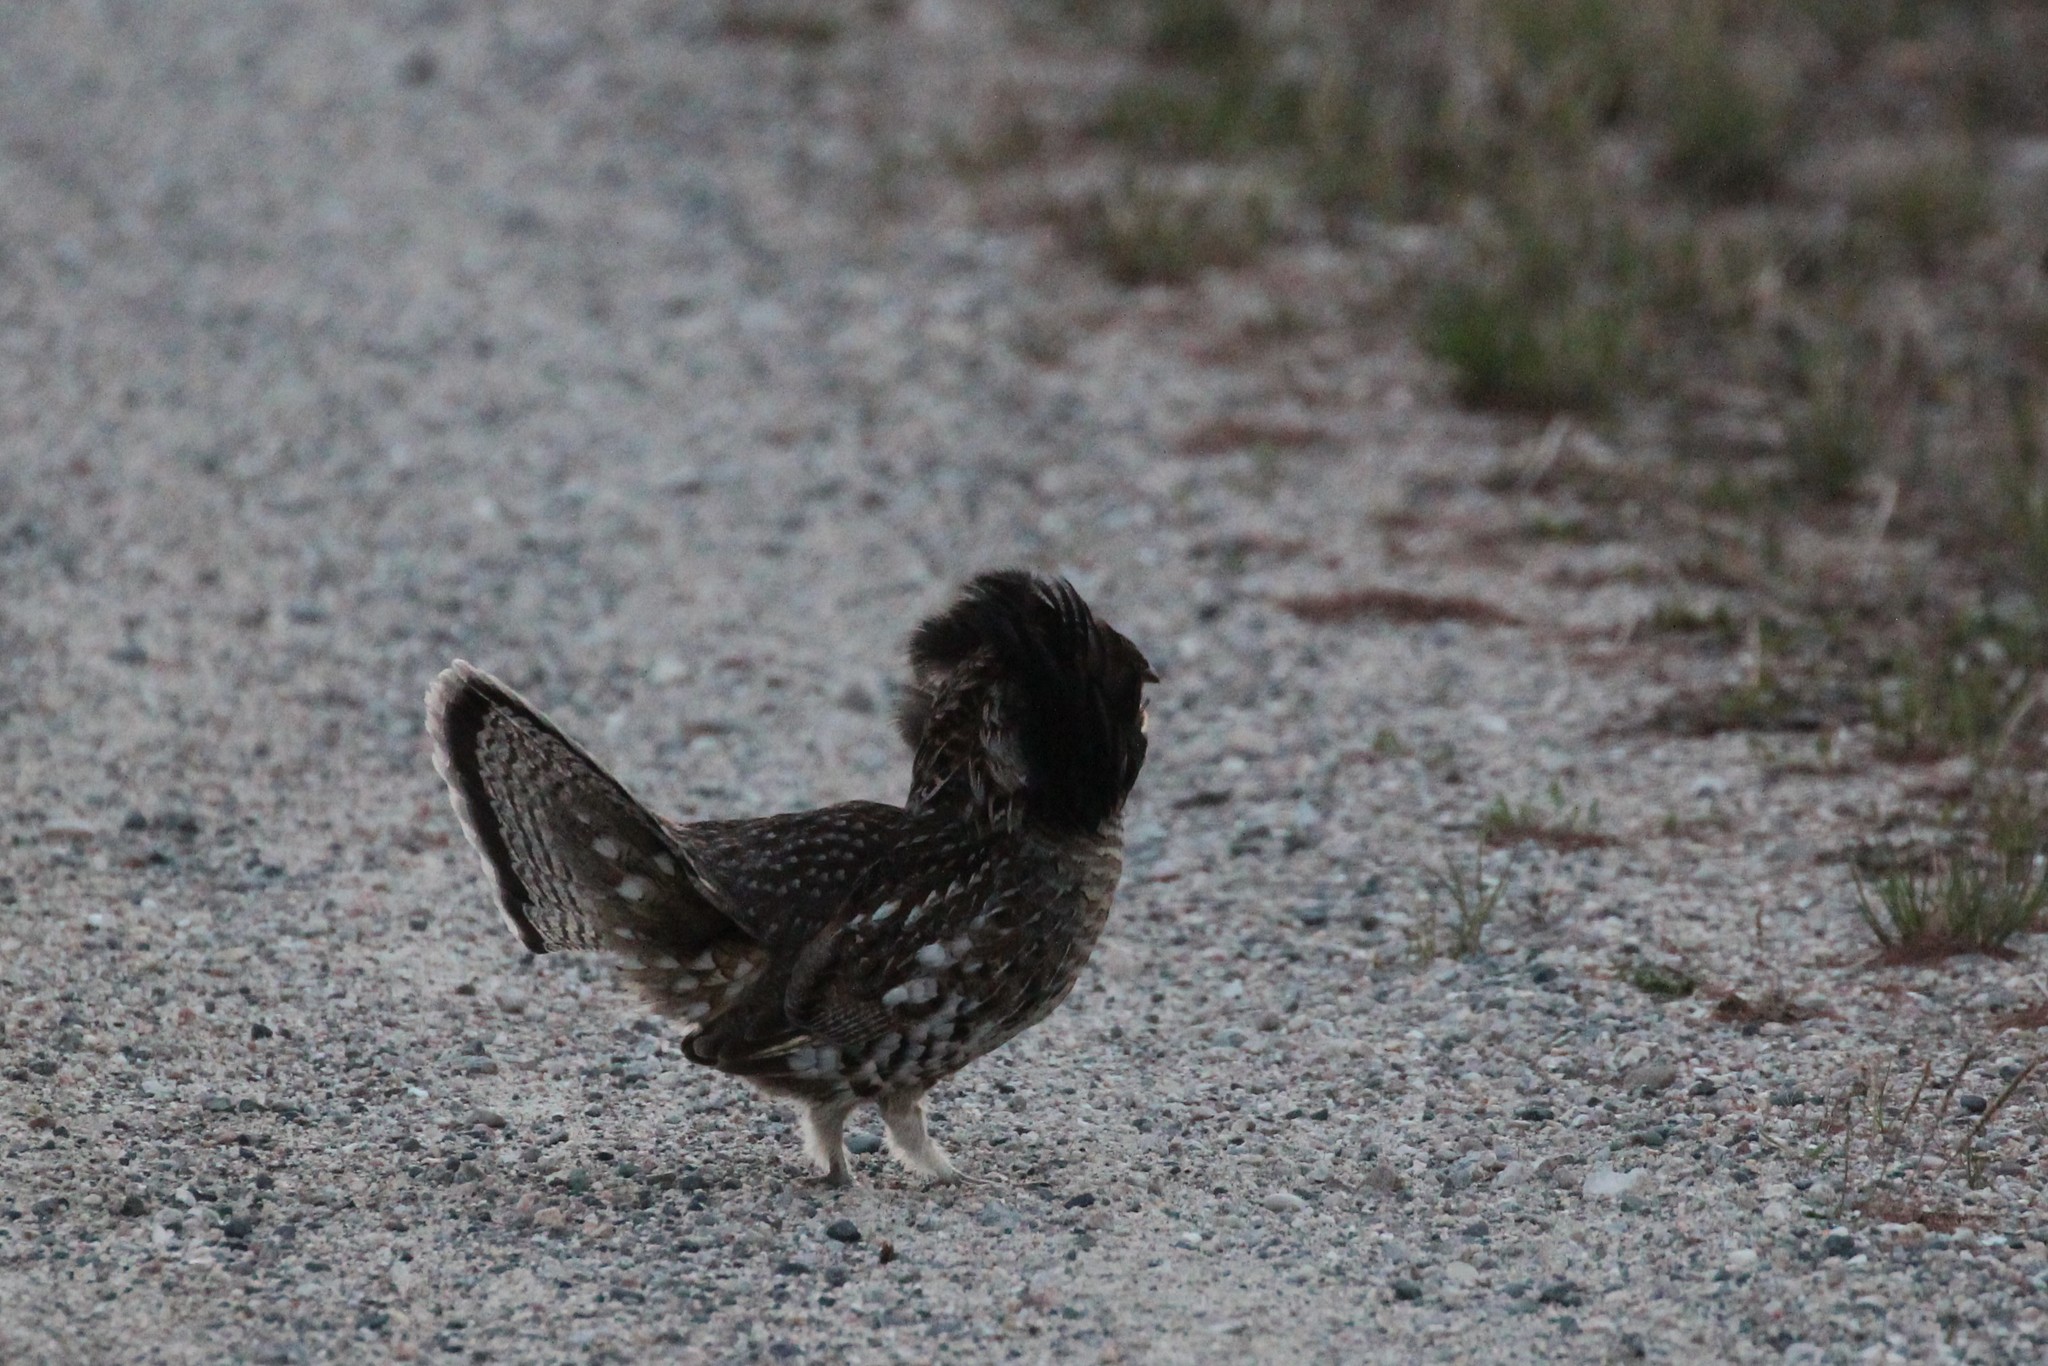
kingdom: Animalia
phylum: Chordata
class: Aves
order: Galliformes
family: Phasianidae
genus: Bonasa
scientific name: Bonasa umbellus
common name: Ruffed grouse
